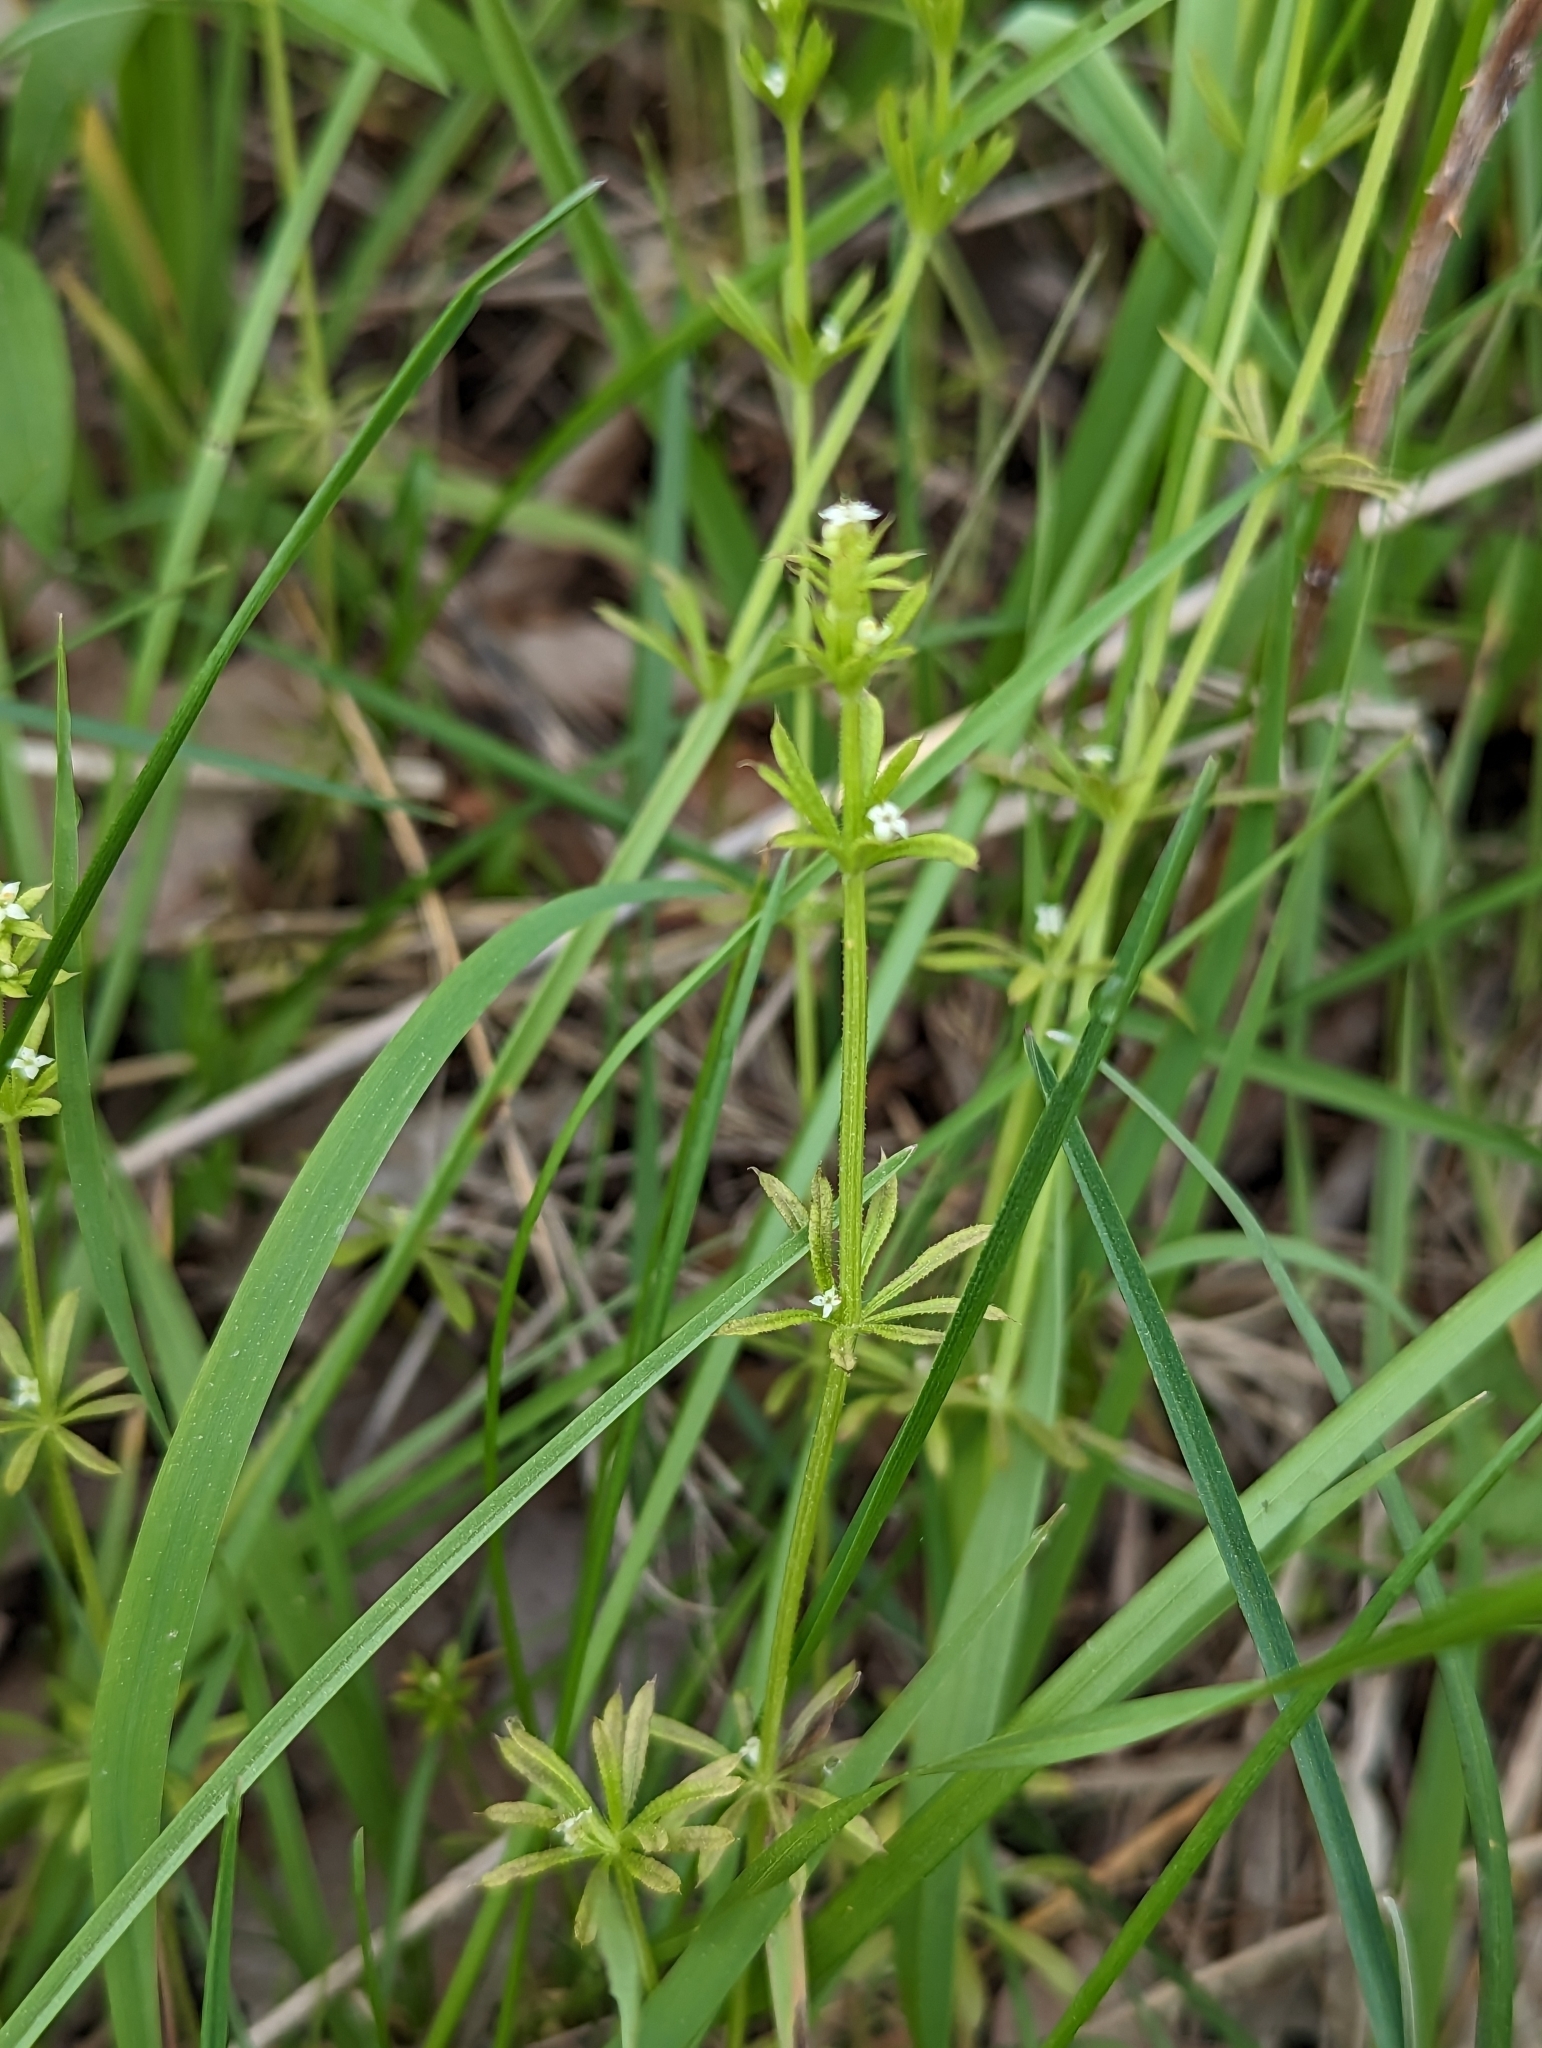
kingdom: Plantae
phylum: Tracheophyta
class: Magnoliopsida
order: Gentianales
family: Rubiaceae
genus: Galium
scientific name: Galium aparine
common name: Cleavers
